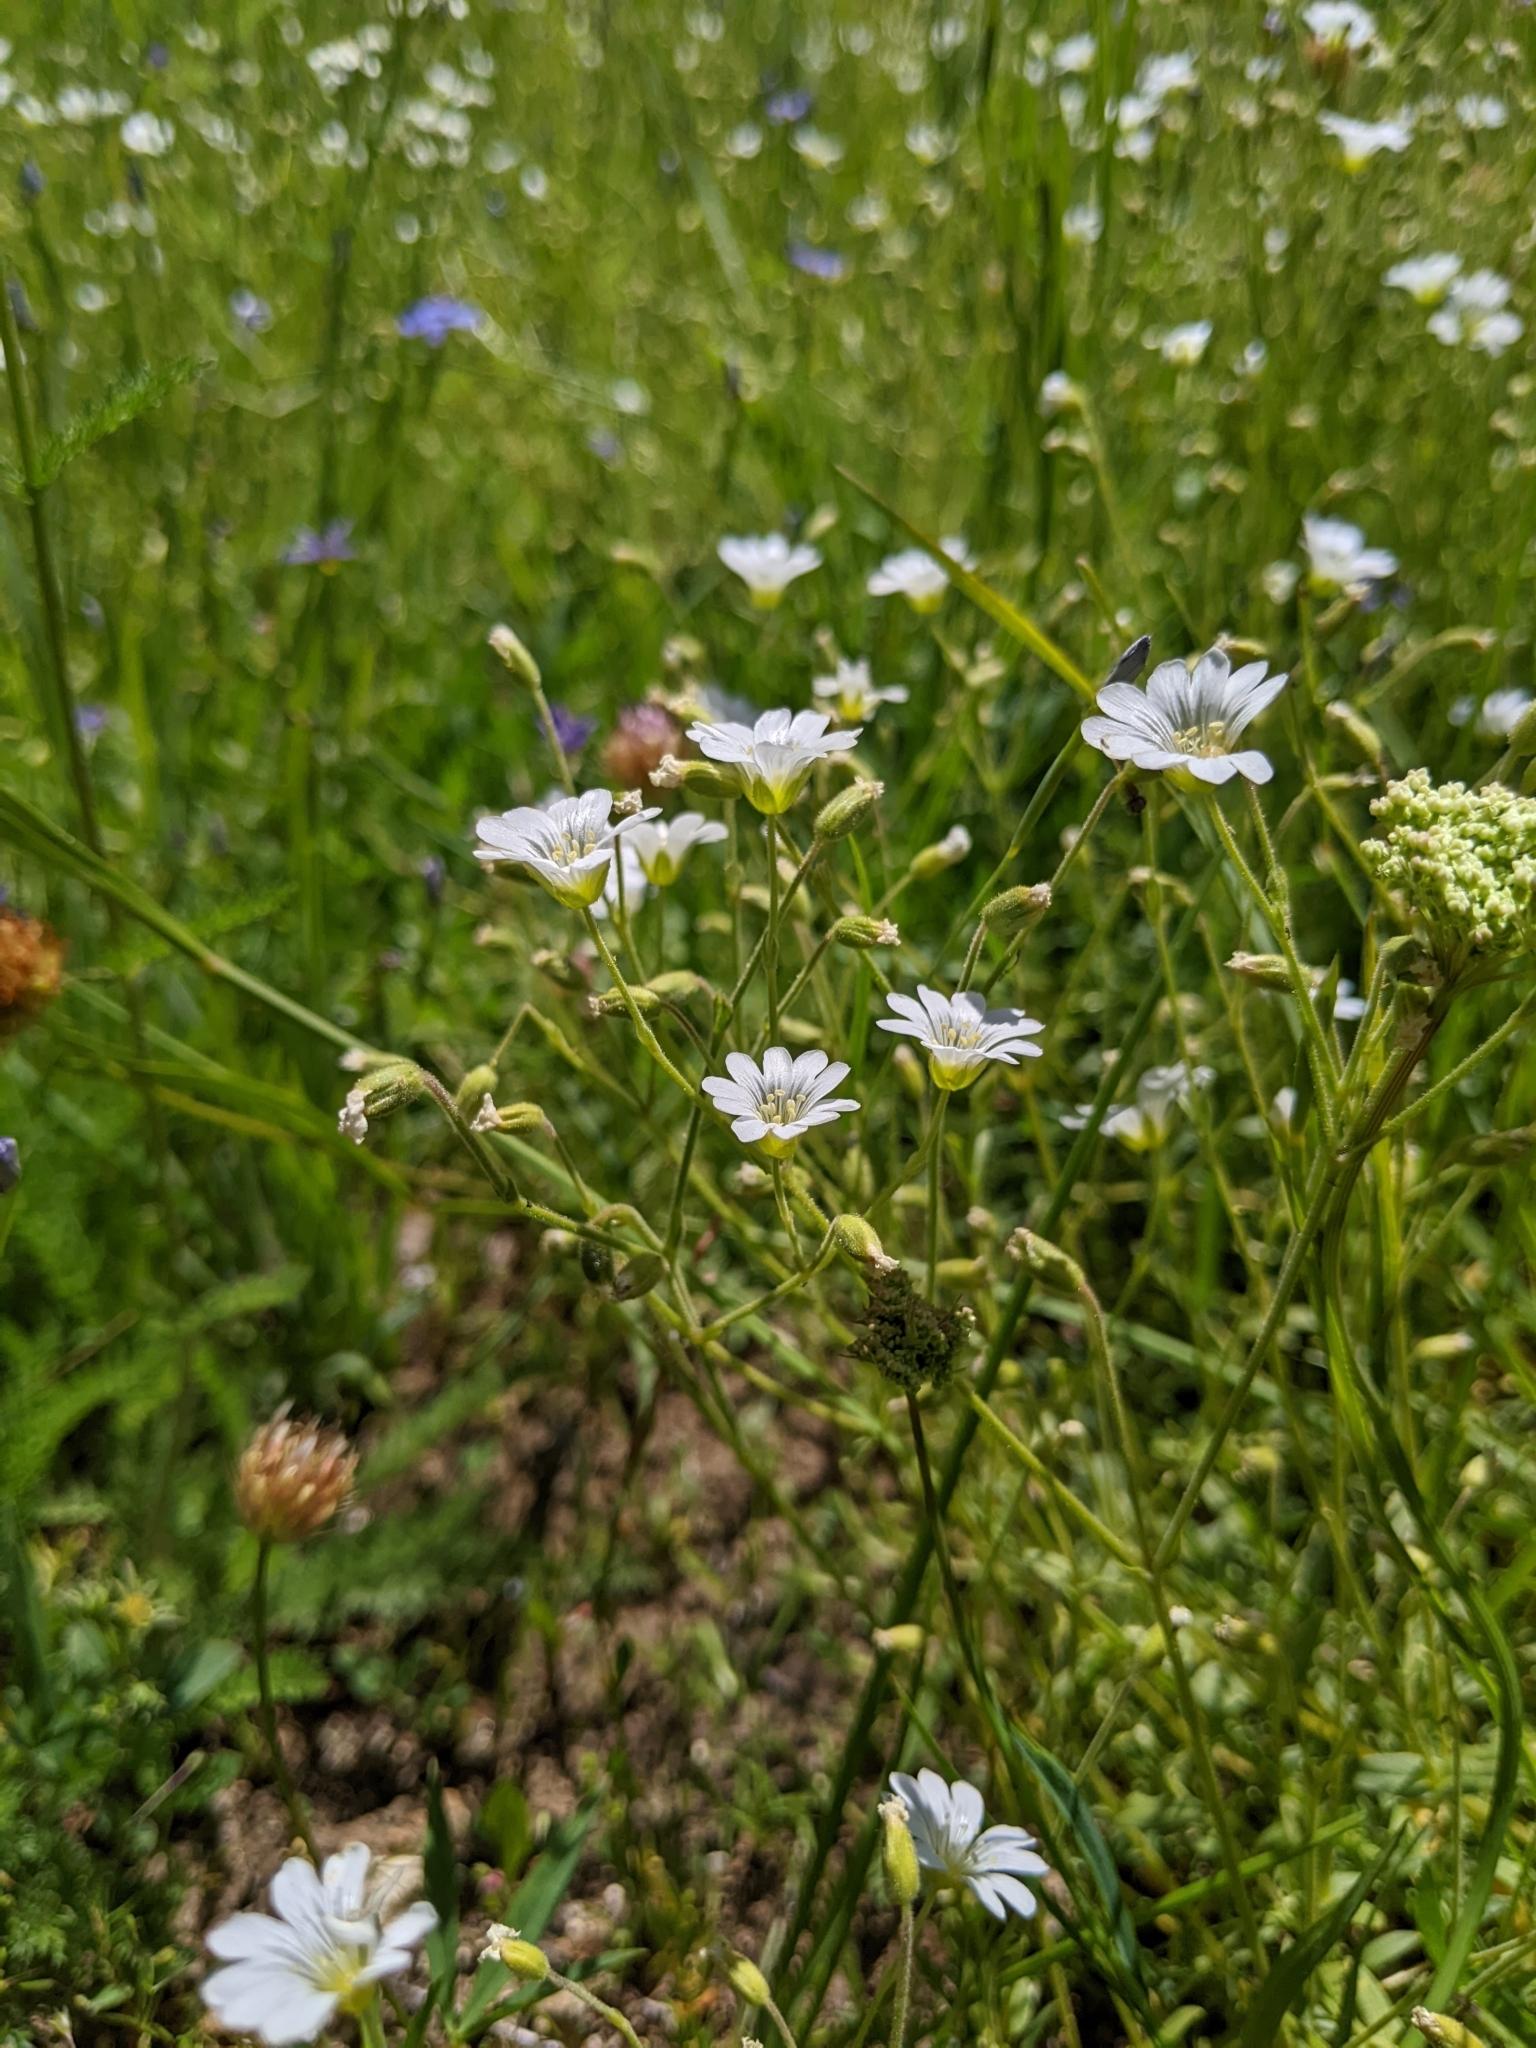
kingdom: Plantae
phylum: Tracheophyta
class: Magnoliopsida
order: Caryophyllales
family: Caryophyllaceae
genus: Cerastium
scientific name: Cerastium arvense
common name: Field mouse-ear
